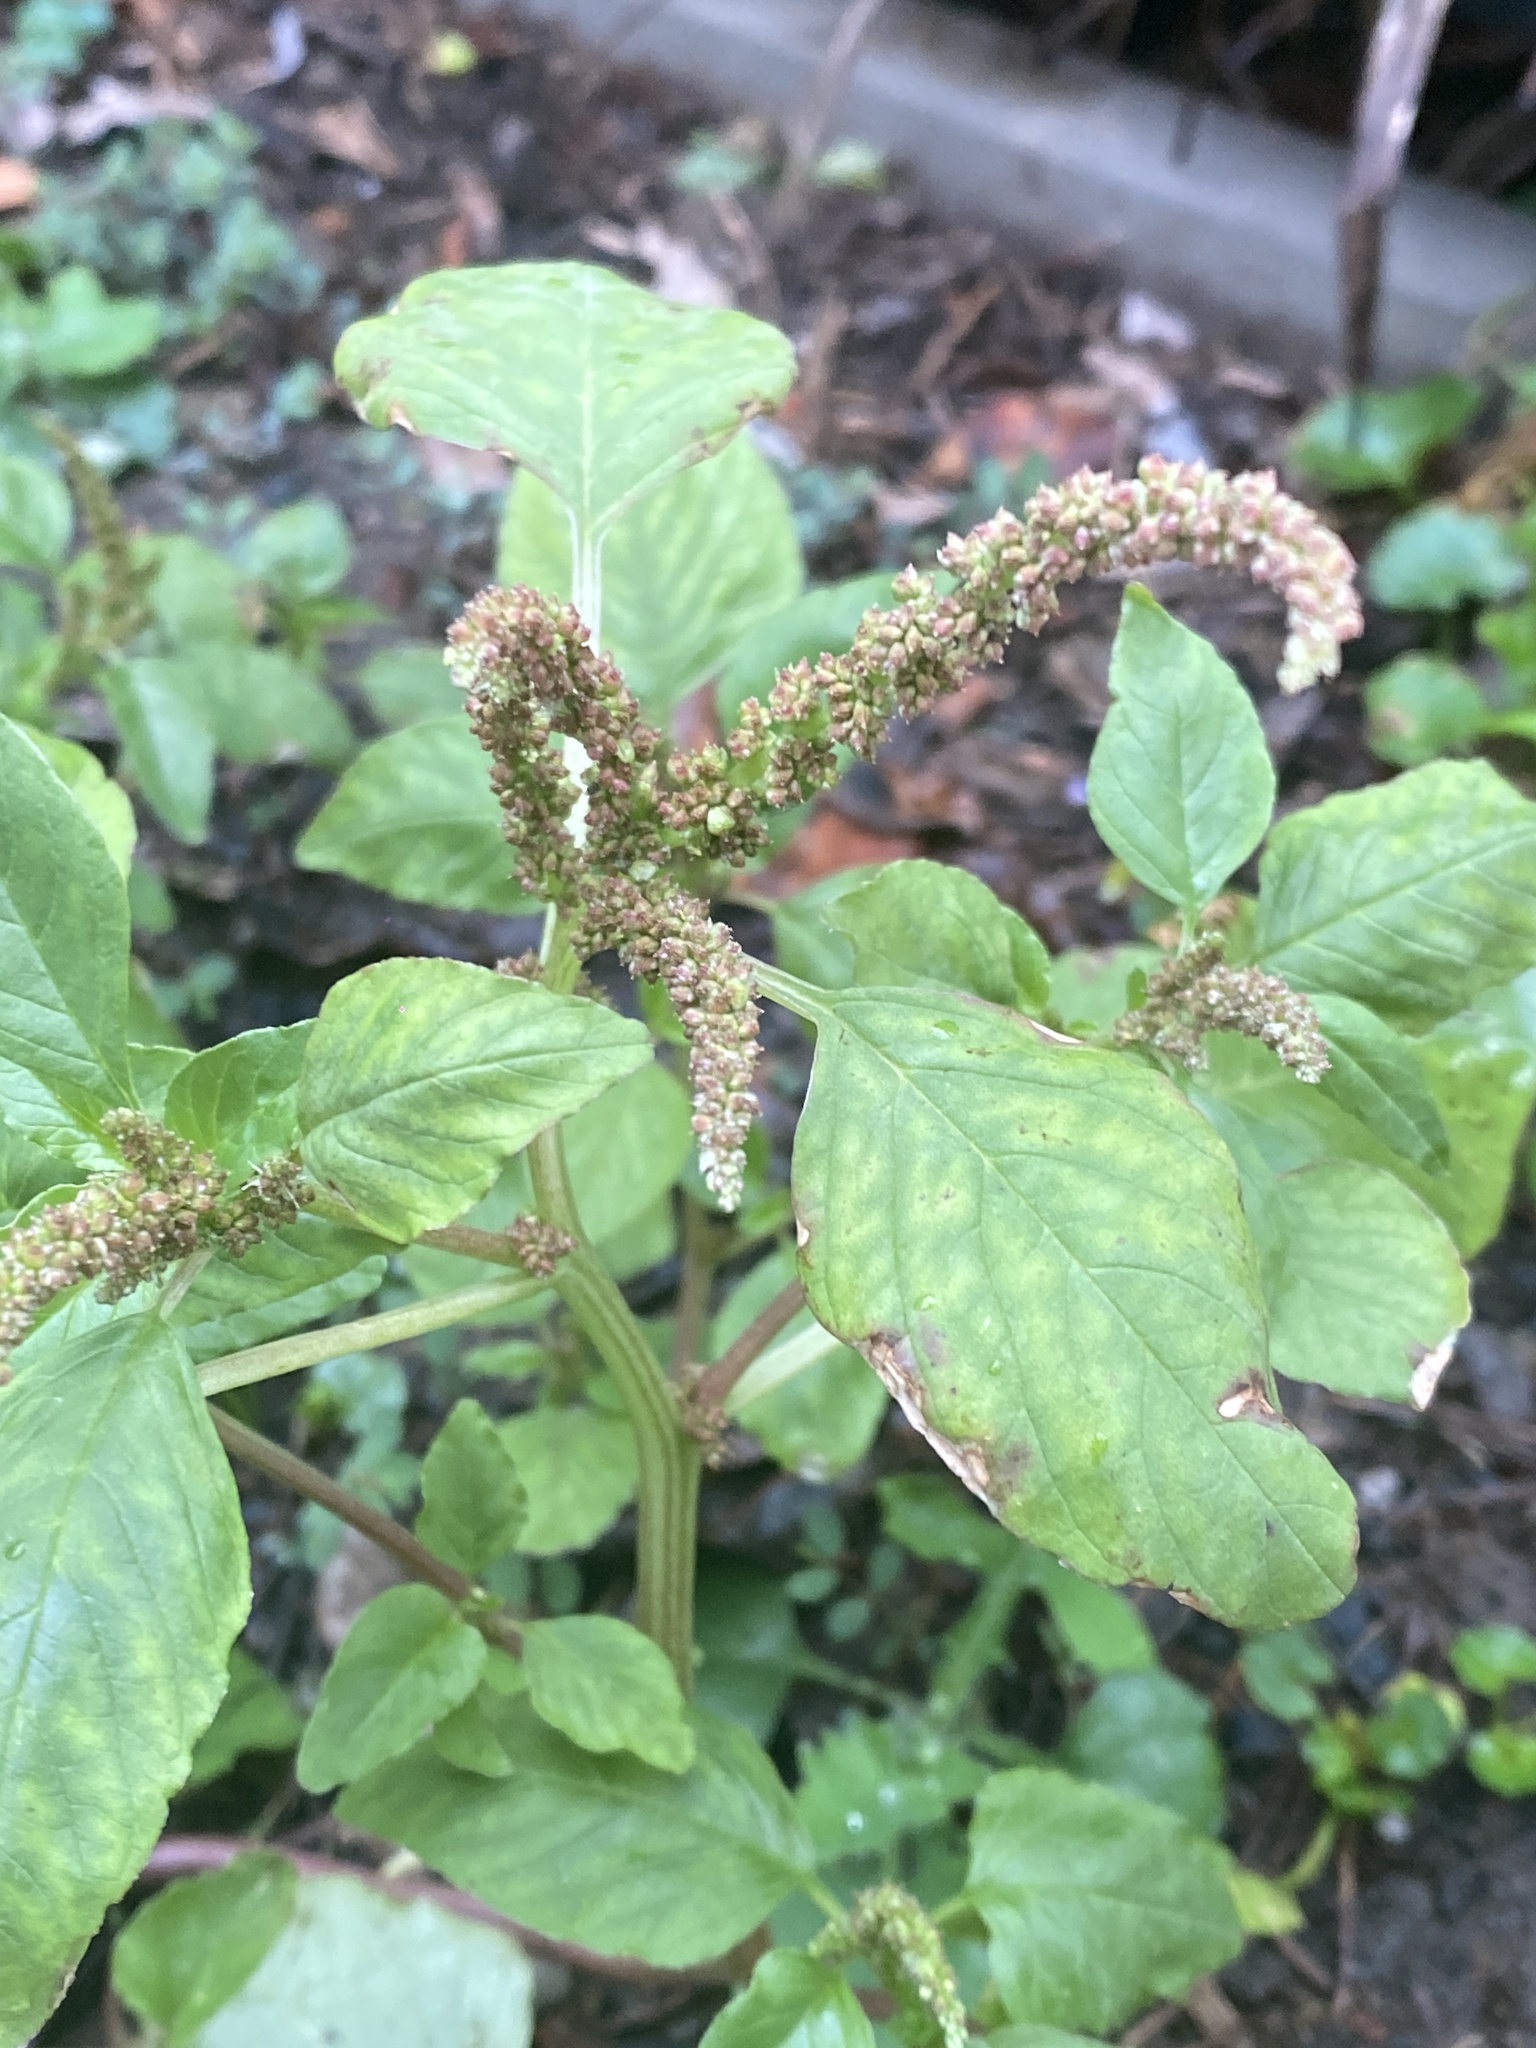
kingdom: Plantae
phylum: Tracheophyta
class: Magnoliopsida
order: Caryophyllales
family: Amaranthaceae
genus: Amaranthus
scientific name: Amaranthus viridis
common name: Slender amaranth
